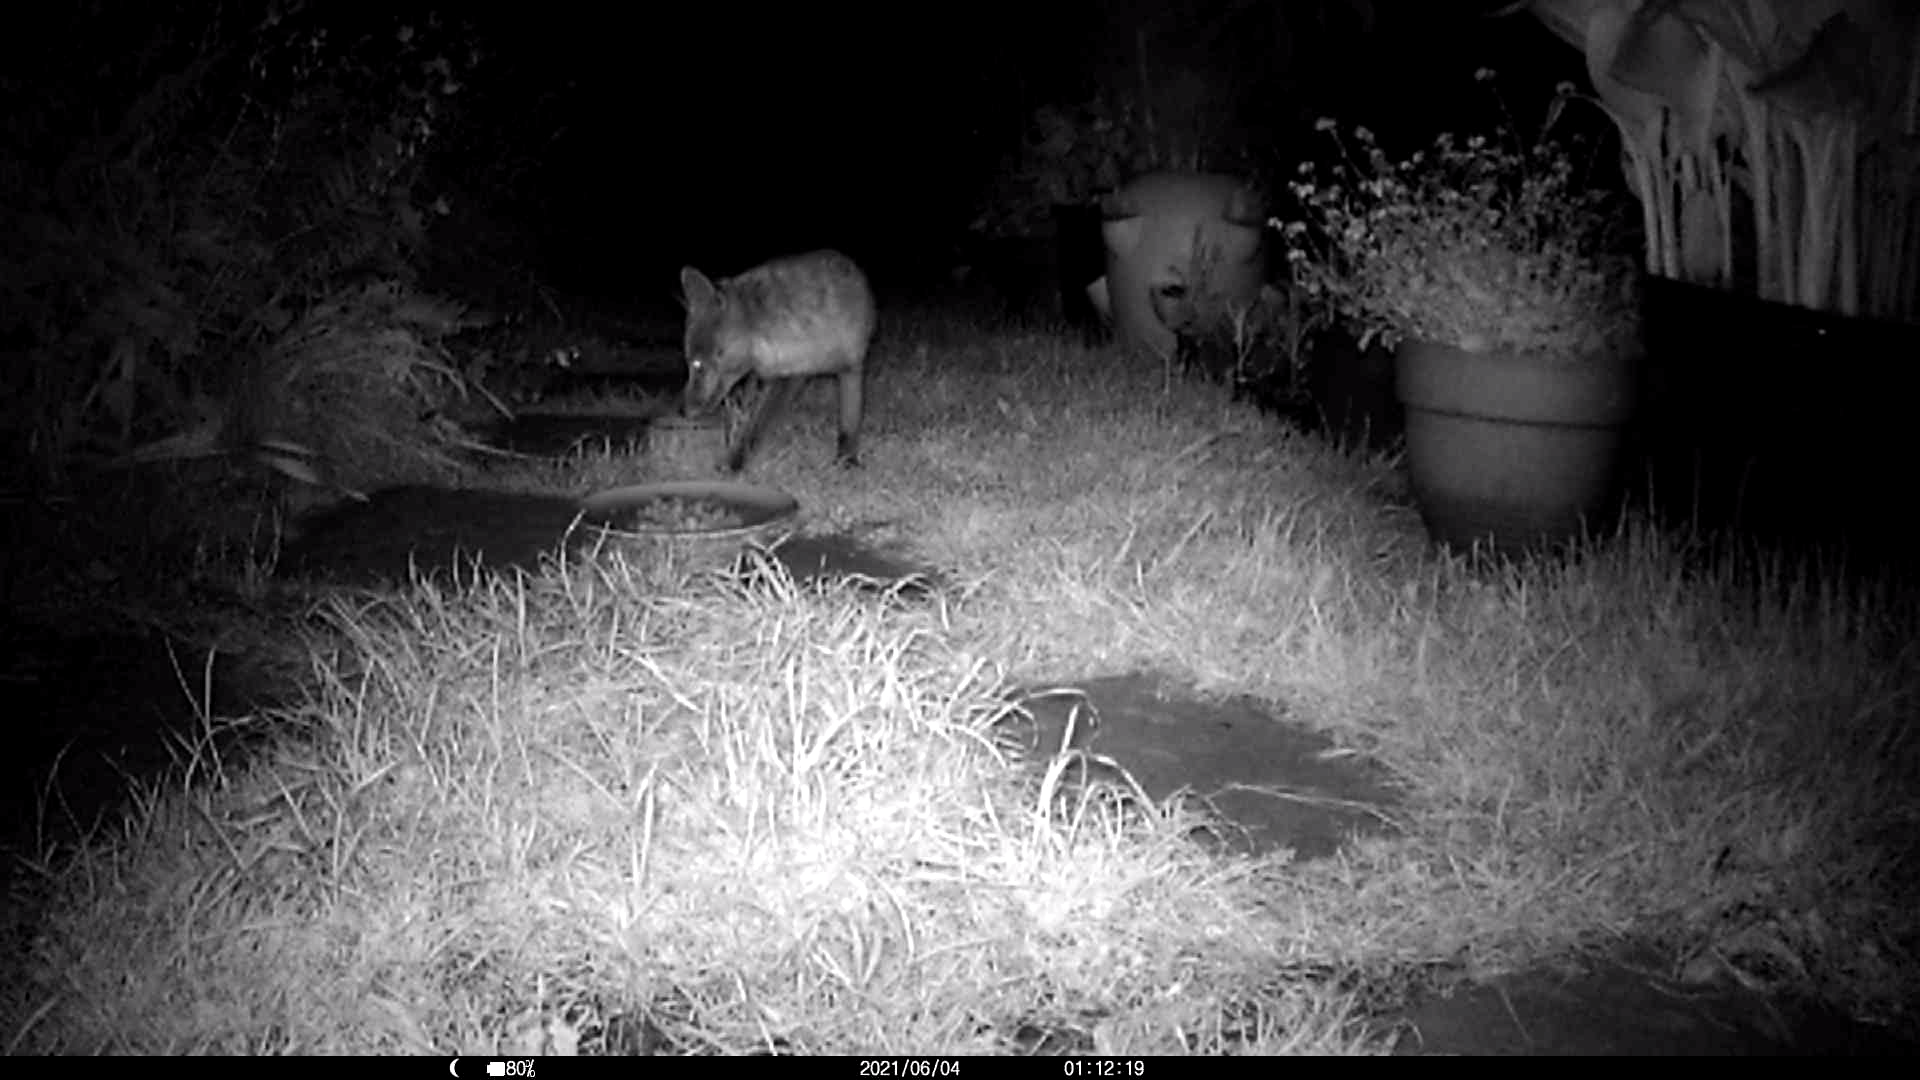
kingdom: Animalia
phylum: Chordata
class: Mammalia
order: Carnivora
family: Canidae
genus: Vulpes
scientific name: Vulpes vulpes
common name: Red fox
